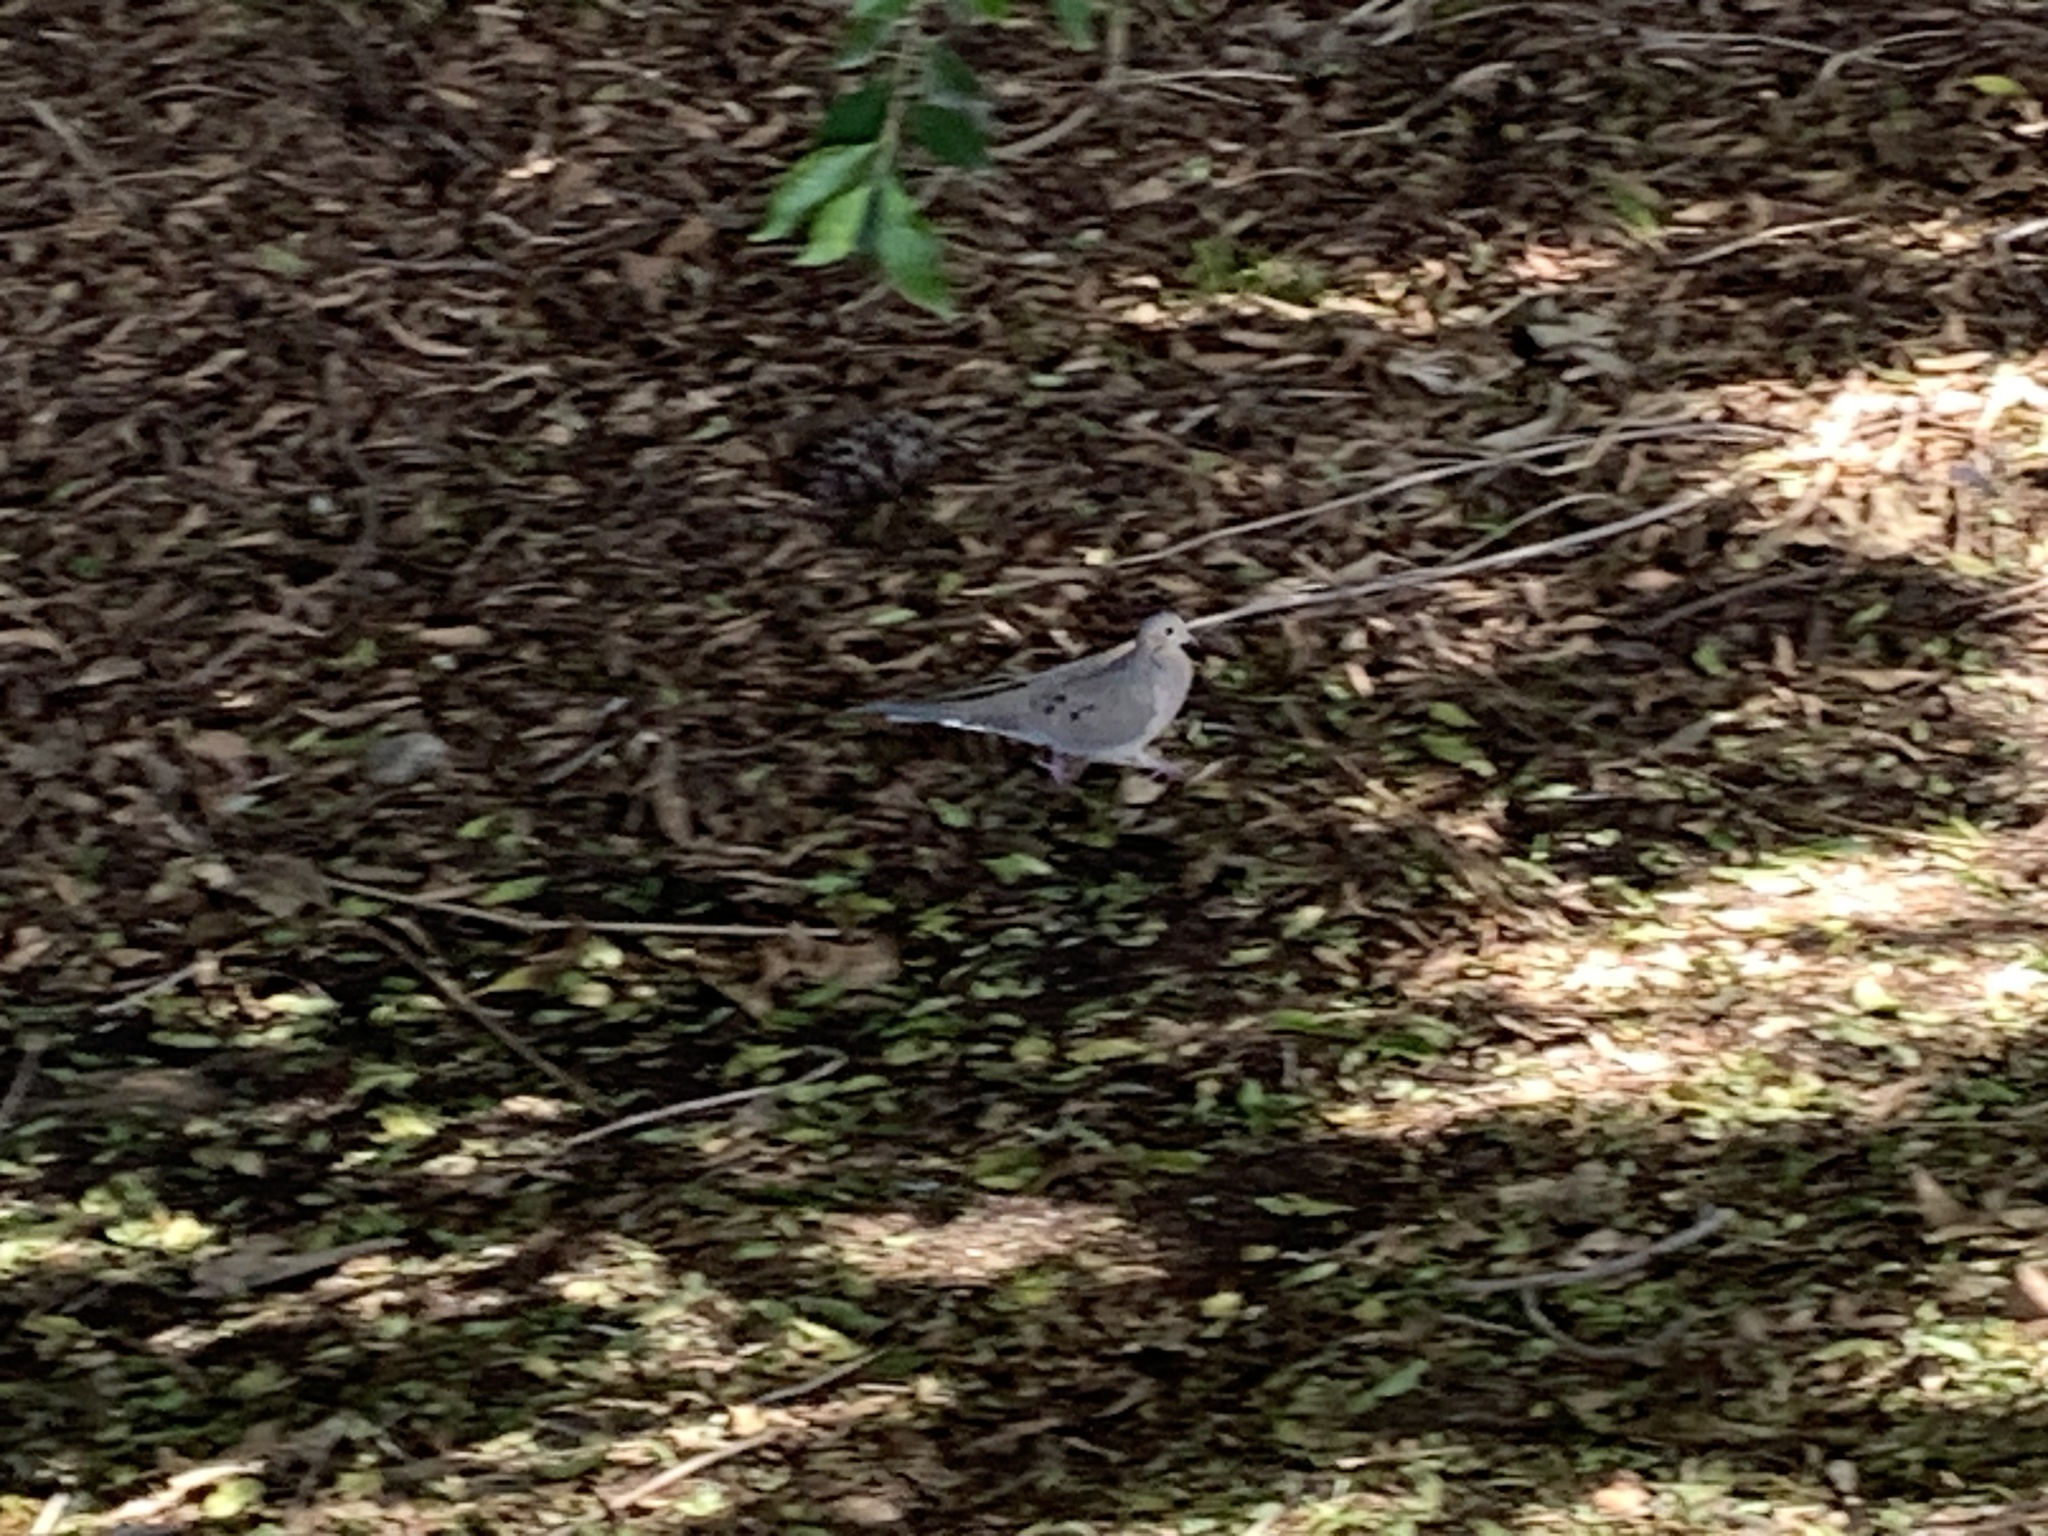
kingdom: Animalia
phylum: Chordata
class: Aves
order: Columbiformes
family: Columbidae
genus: Zenaida
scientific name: Zenaida macroura
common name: Mourning dove
